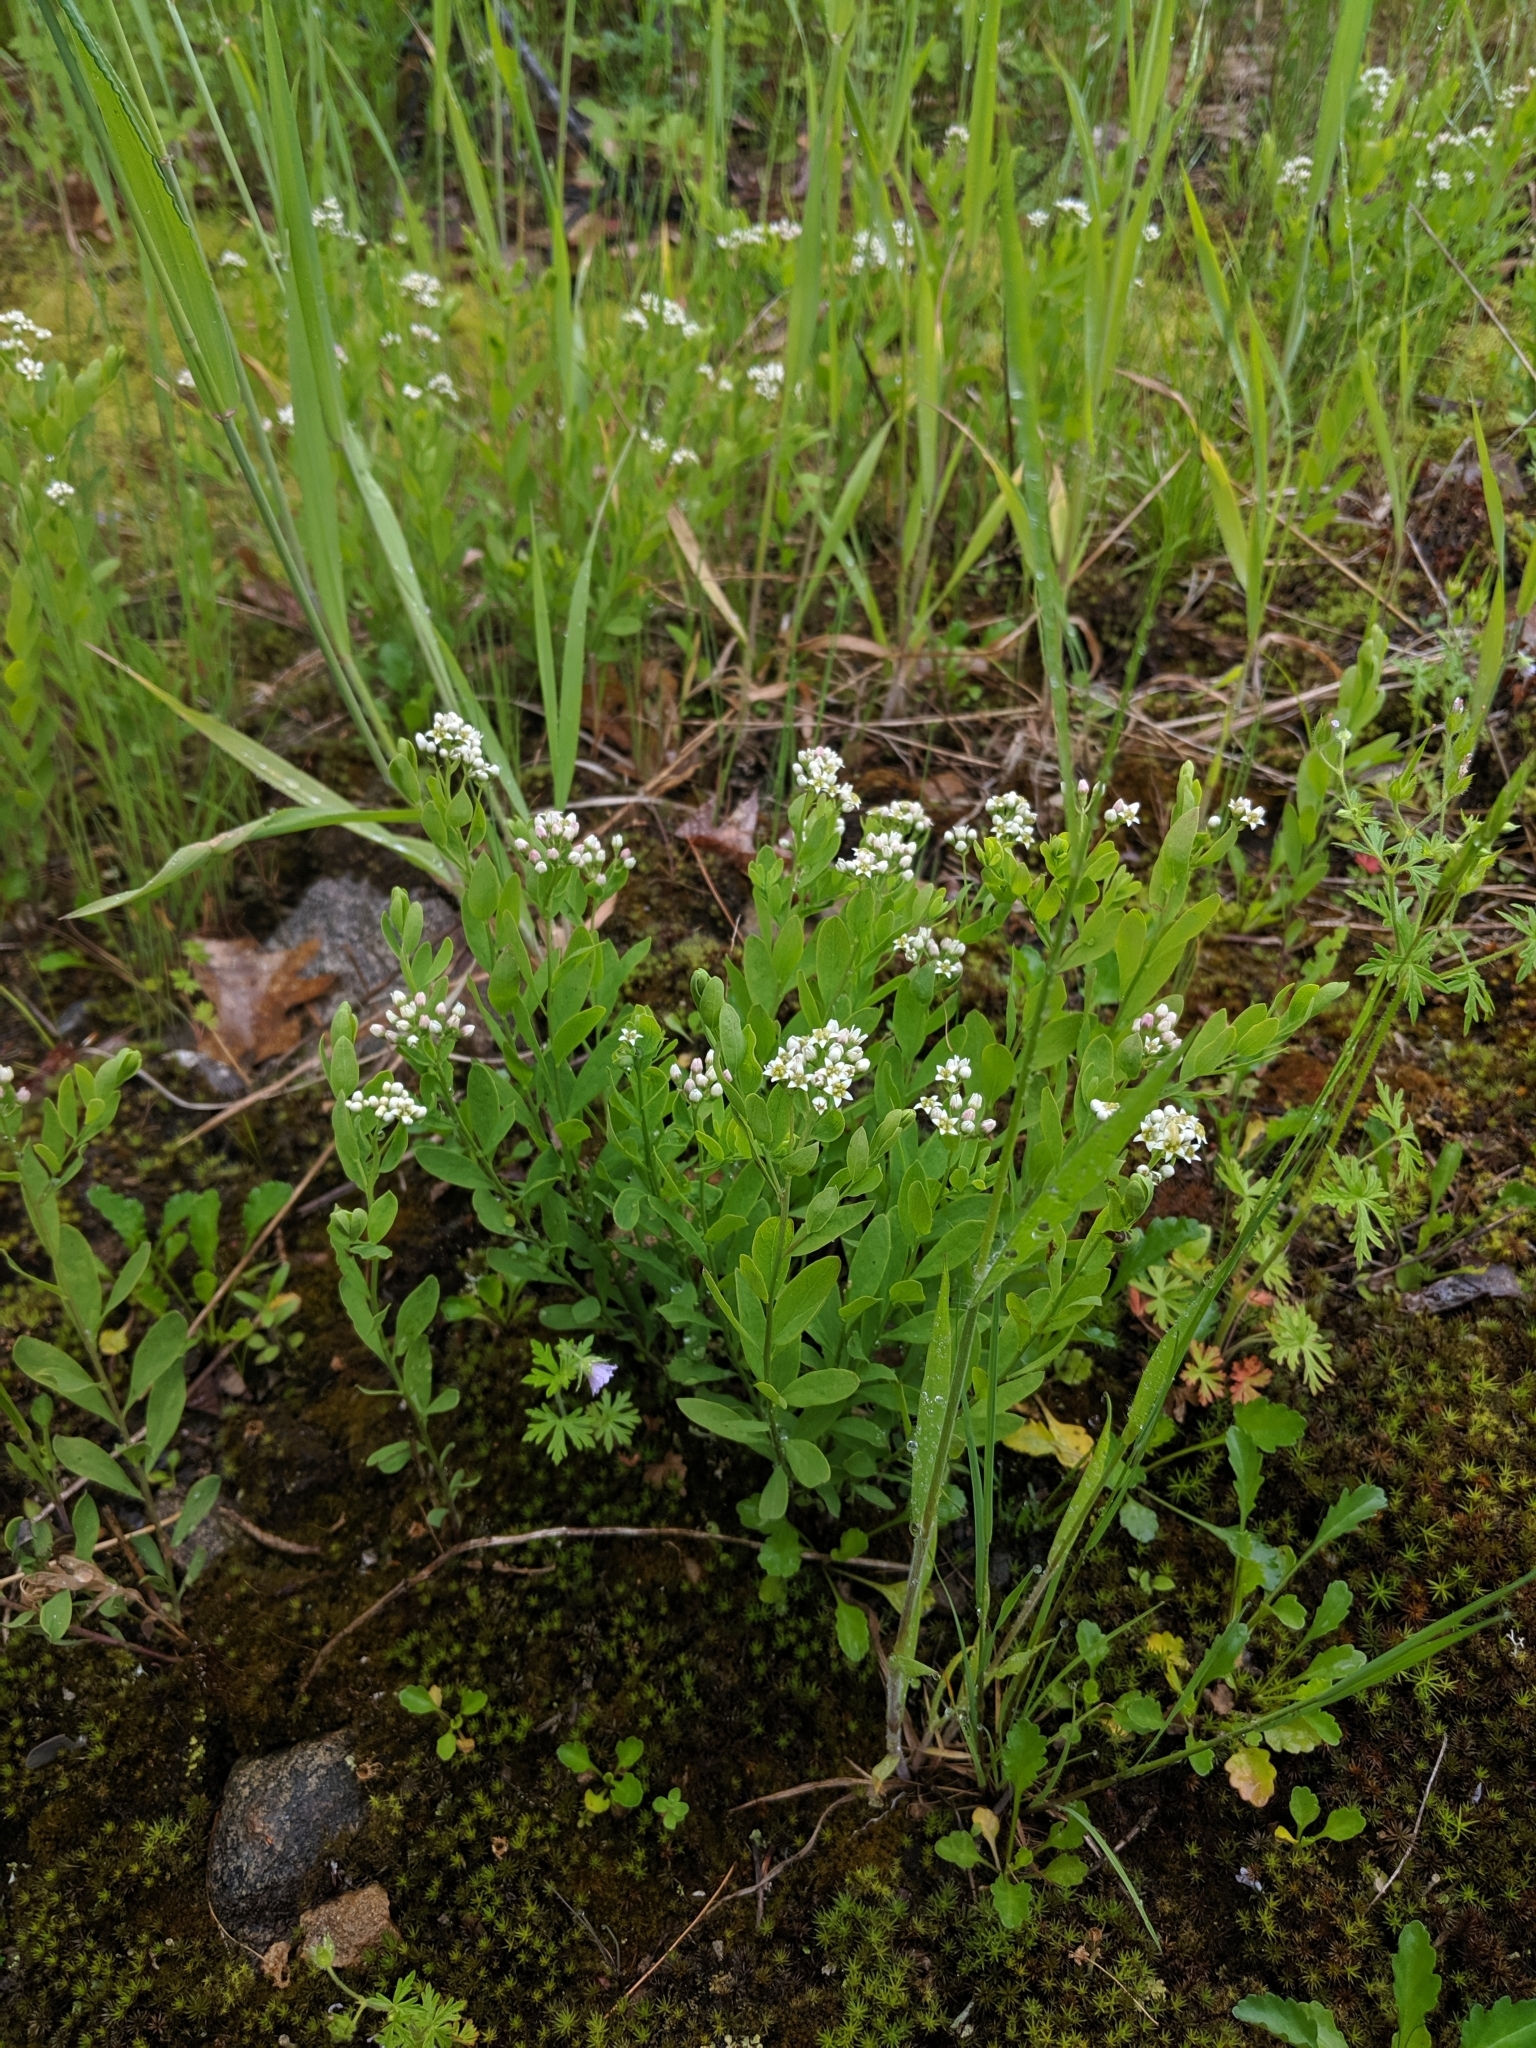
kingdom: Plantae
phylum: Tracheophyta
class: Magnoliopsida
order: Santalales
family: Comandraceae
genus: Comandra
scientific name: Comandra umbellata
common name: Bastard toadflax
